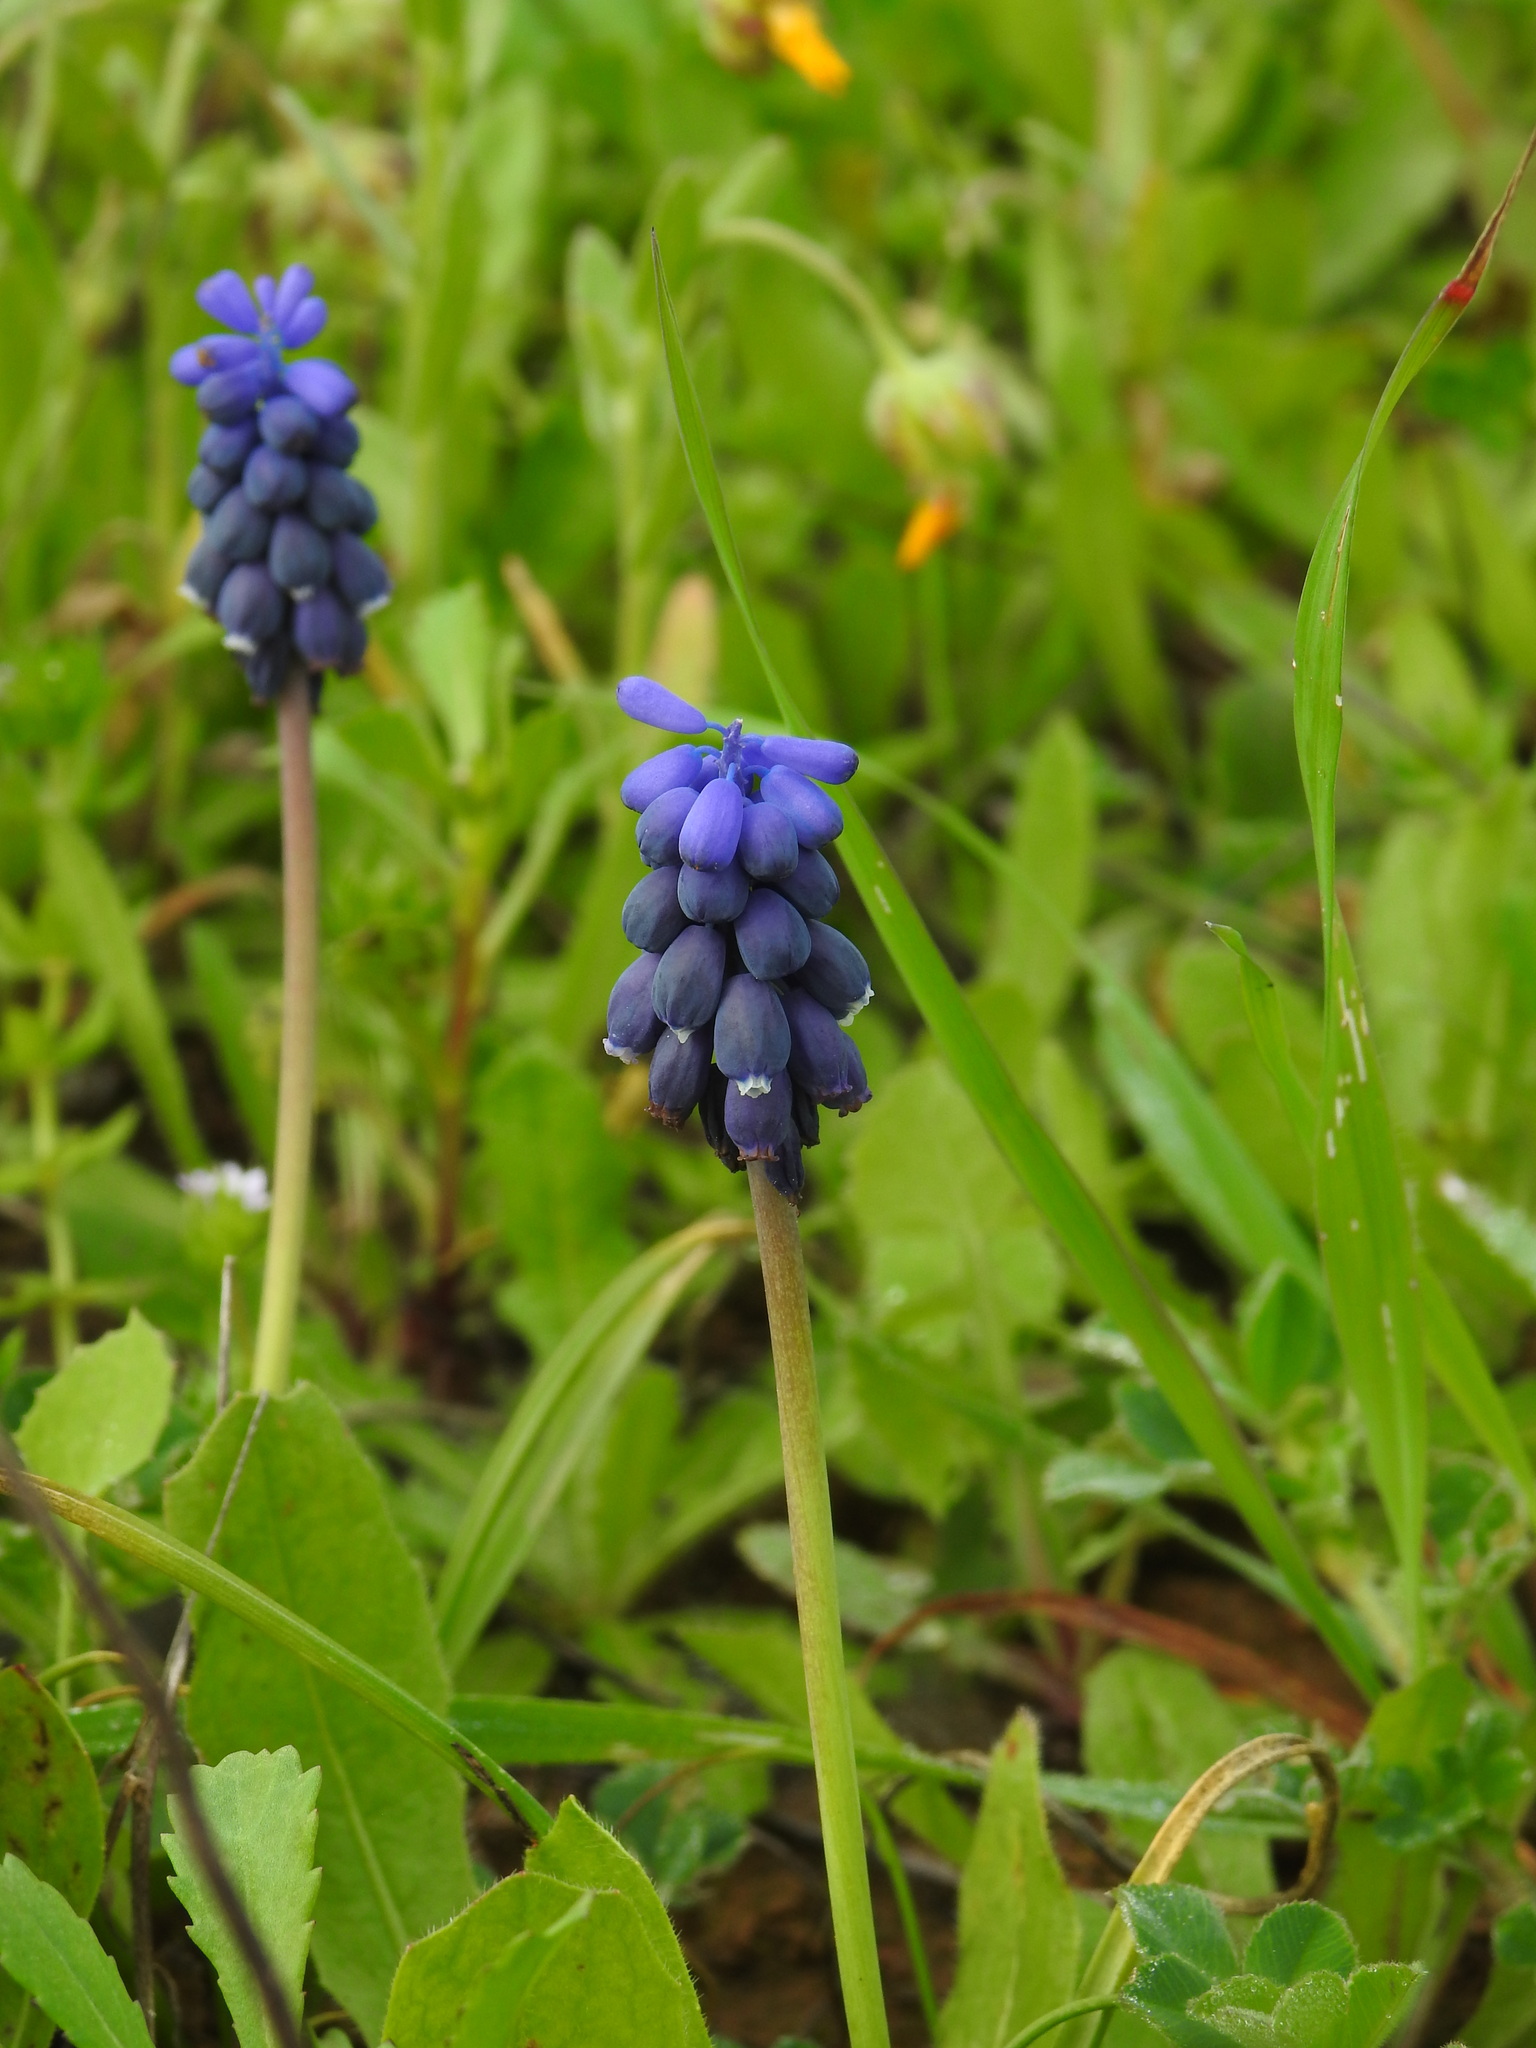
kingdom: Plantae
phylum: Tracheophyta
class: Liliopsida
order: Asparagales
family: Asparagaceae
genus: Muscari
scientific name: Muscari neglectum
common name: Grape-hyacinth
